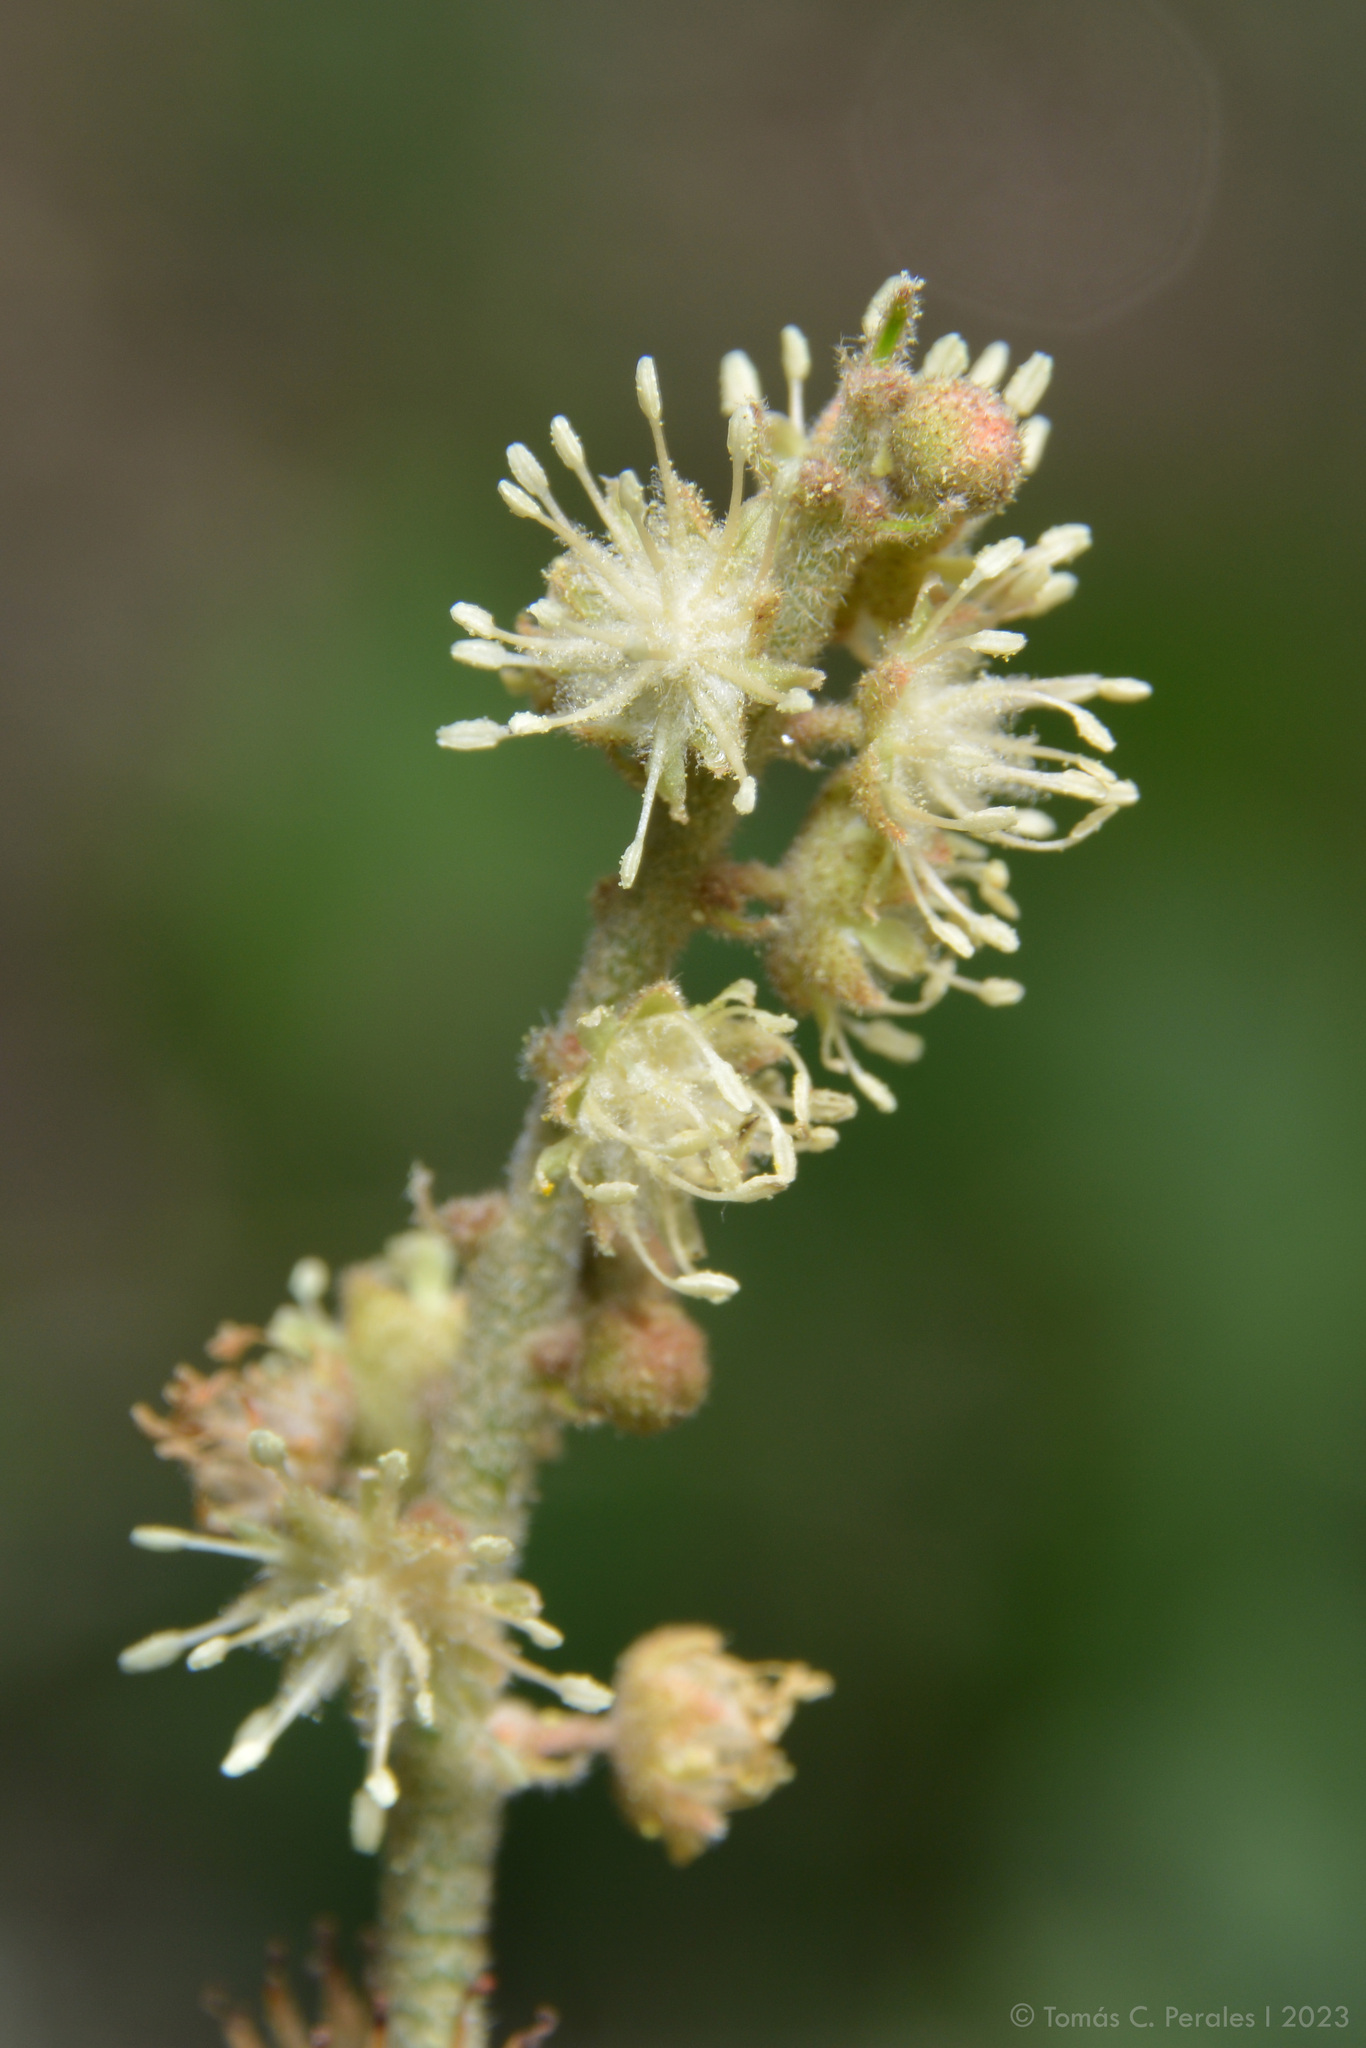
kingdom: Plantae
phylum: Tracheophyta
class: Magnoliopsida
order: Malpighiales
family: Euphorbiaceae
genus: Croton
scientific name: Croton lanatus
